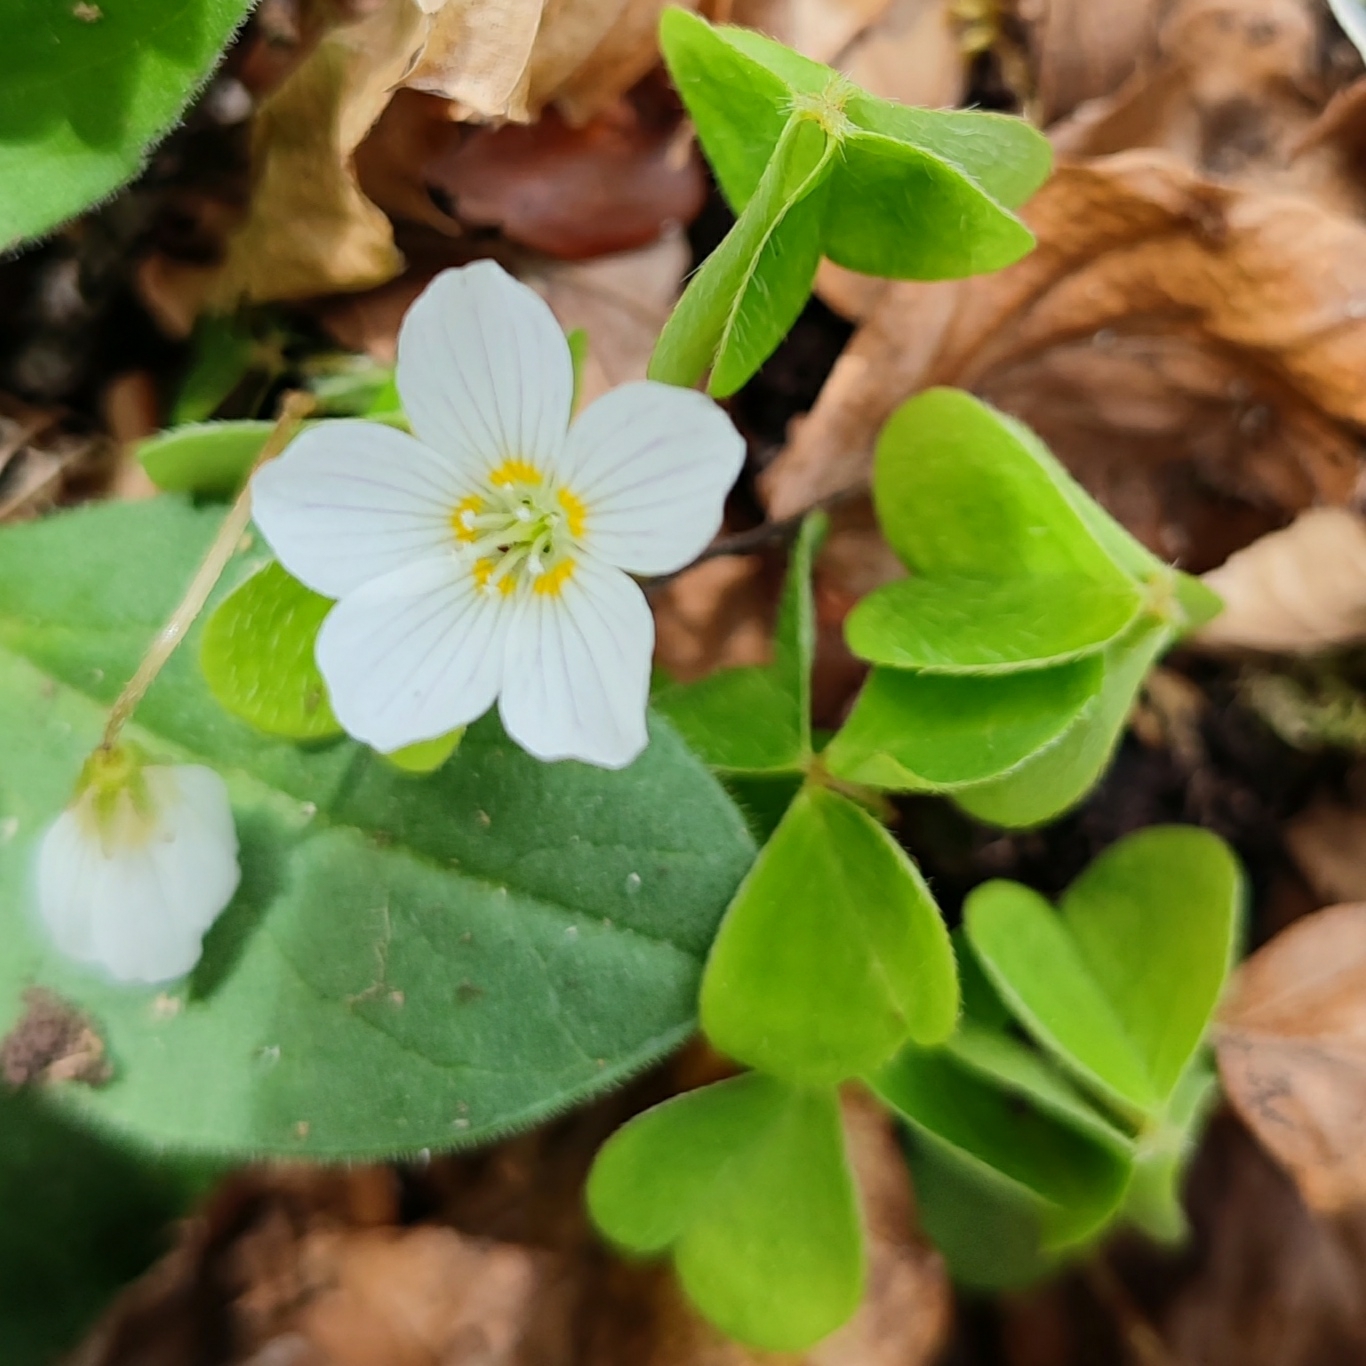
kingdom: Plantae
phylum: Tracheophyta
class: Magnoliopsida
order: Oxalidales
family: Oxalidaceae
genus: Oxalis
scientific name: Oxalis acetosella
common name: Wood-sorrel
